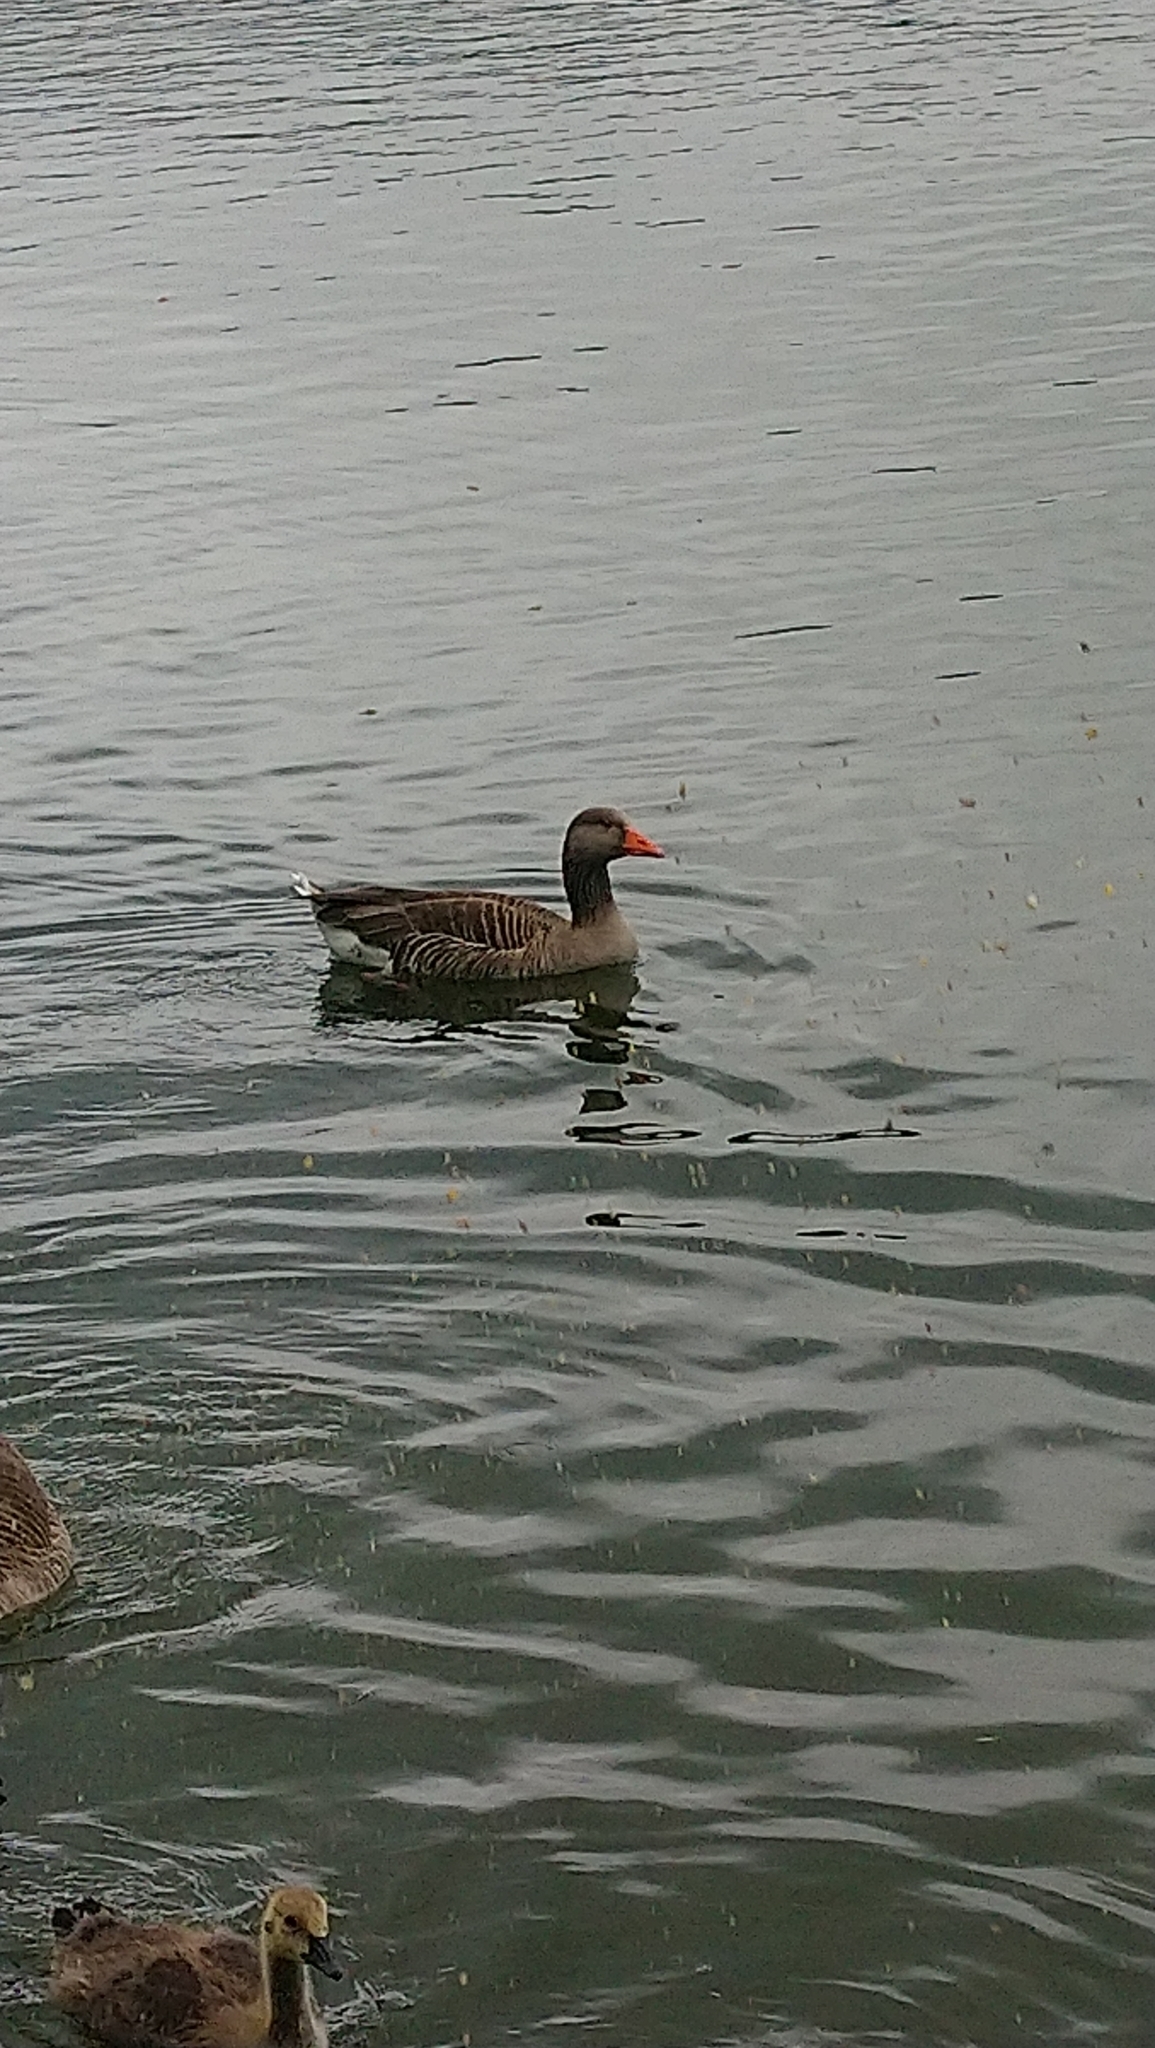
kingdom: Animalia
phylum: Chordata
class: Aves
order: Anseriformes
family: Anatidae
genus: Anser
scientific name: Anser anser
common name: Greylag goose
